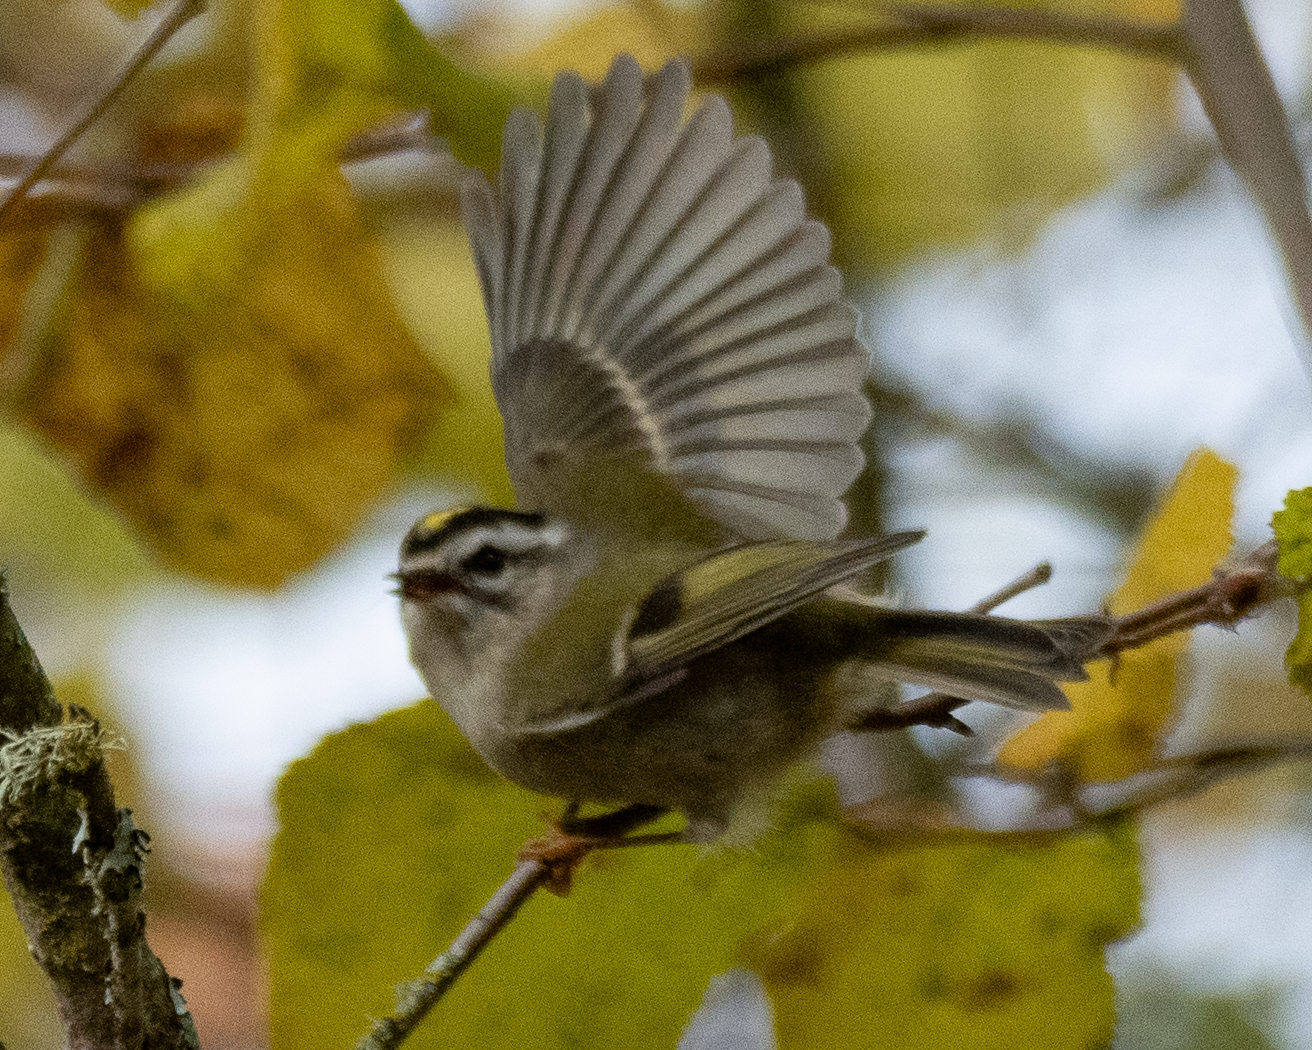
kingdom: Animalia
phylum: Chordata
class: Aves
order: Passeriformes
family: Regulidae
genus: Regulus
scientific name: Regulus satrapa
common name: Golden-crowned kinglet
